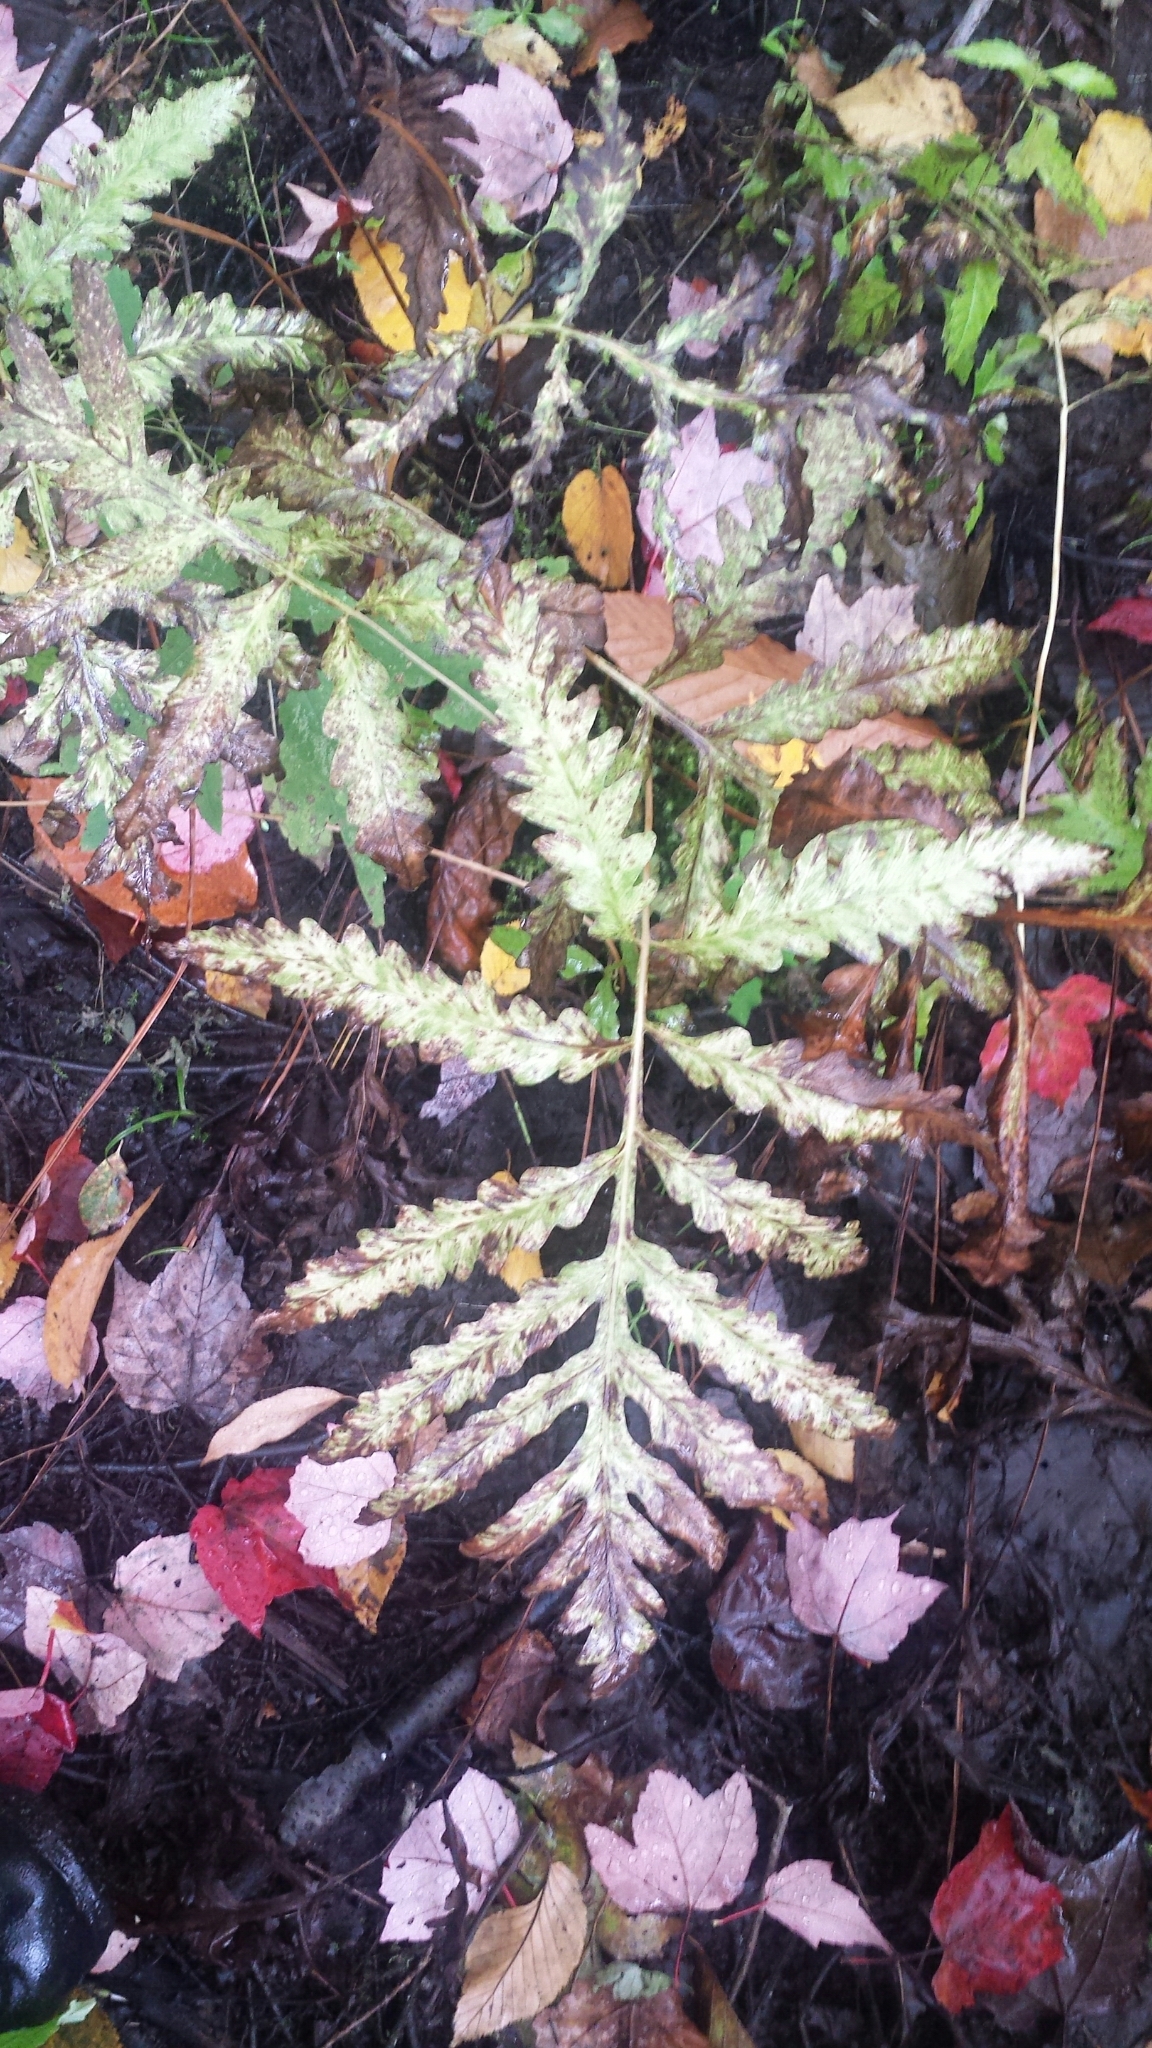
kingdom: Plantae
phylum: Tracheophyta
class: Polypodiopsida
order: Polypodiales
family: Onocleaceae
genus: Onoclea
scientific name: Onoclea sensibilis
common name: Sensitive fern
